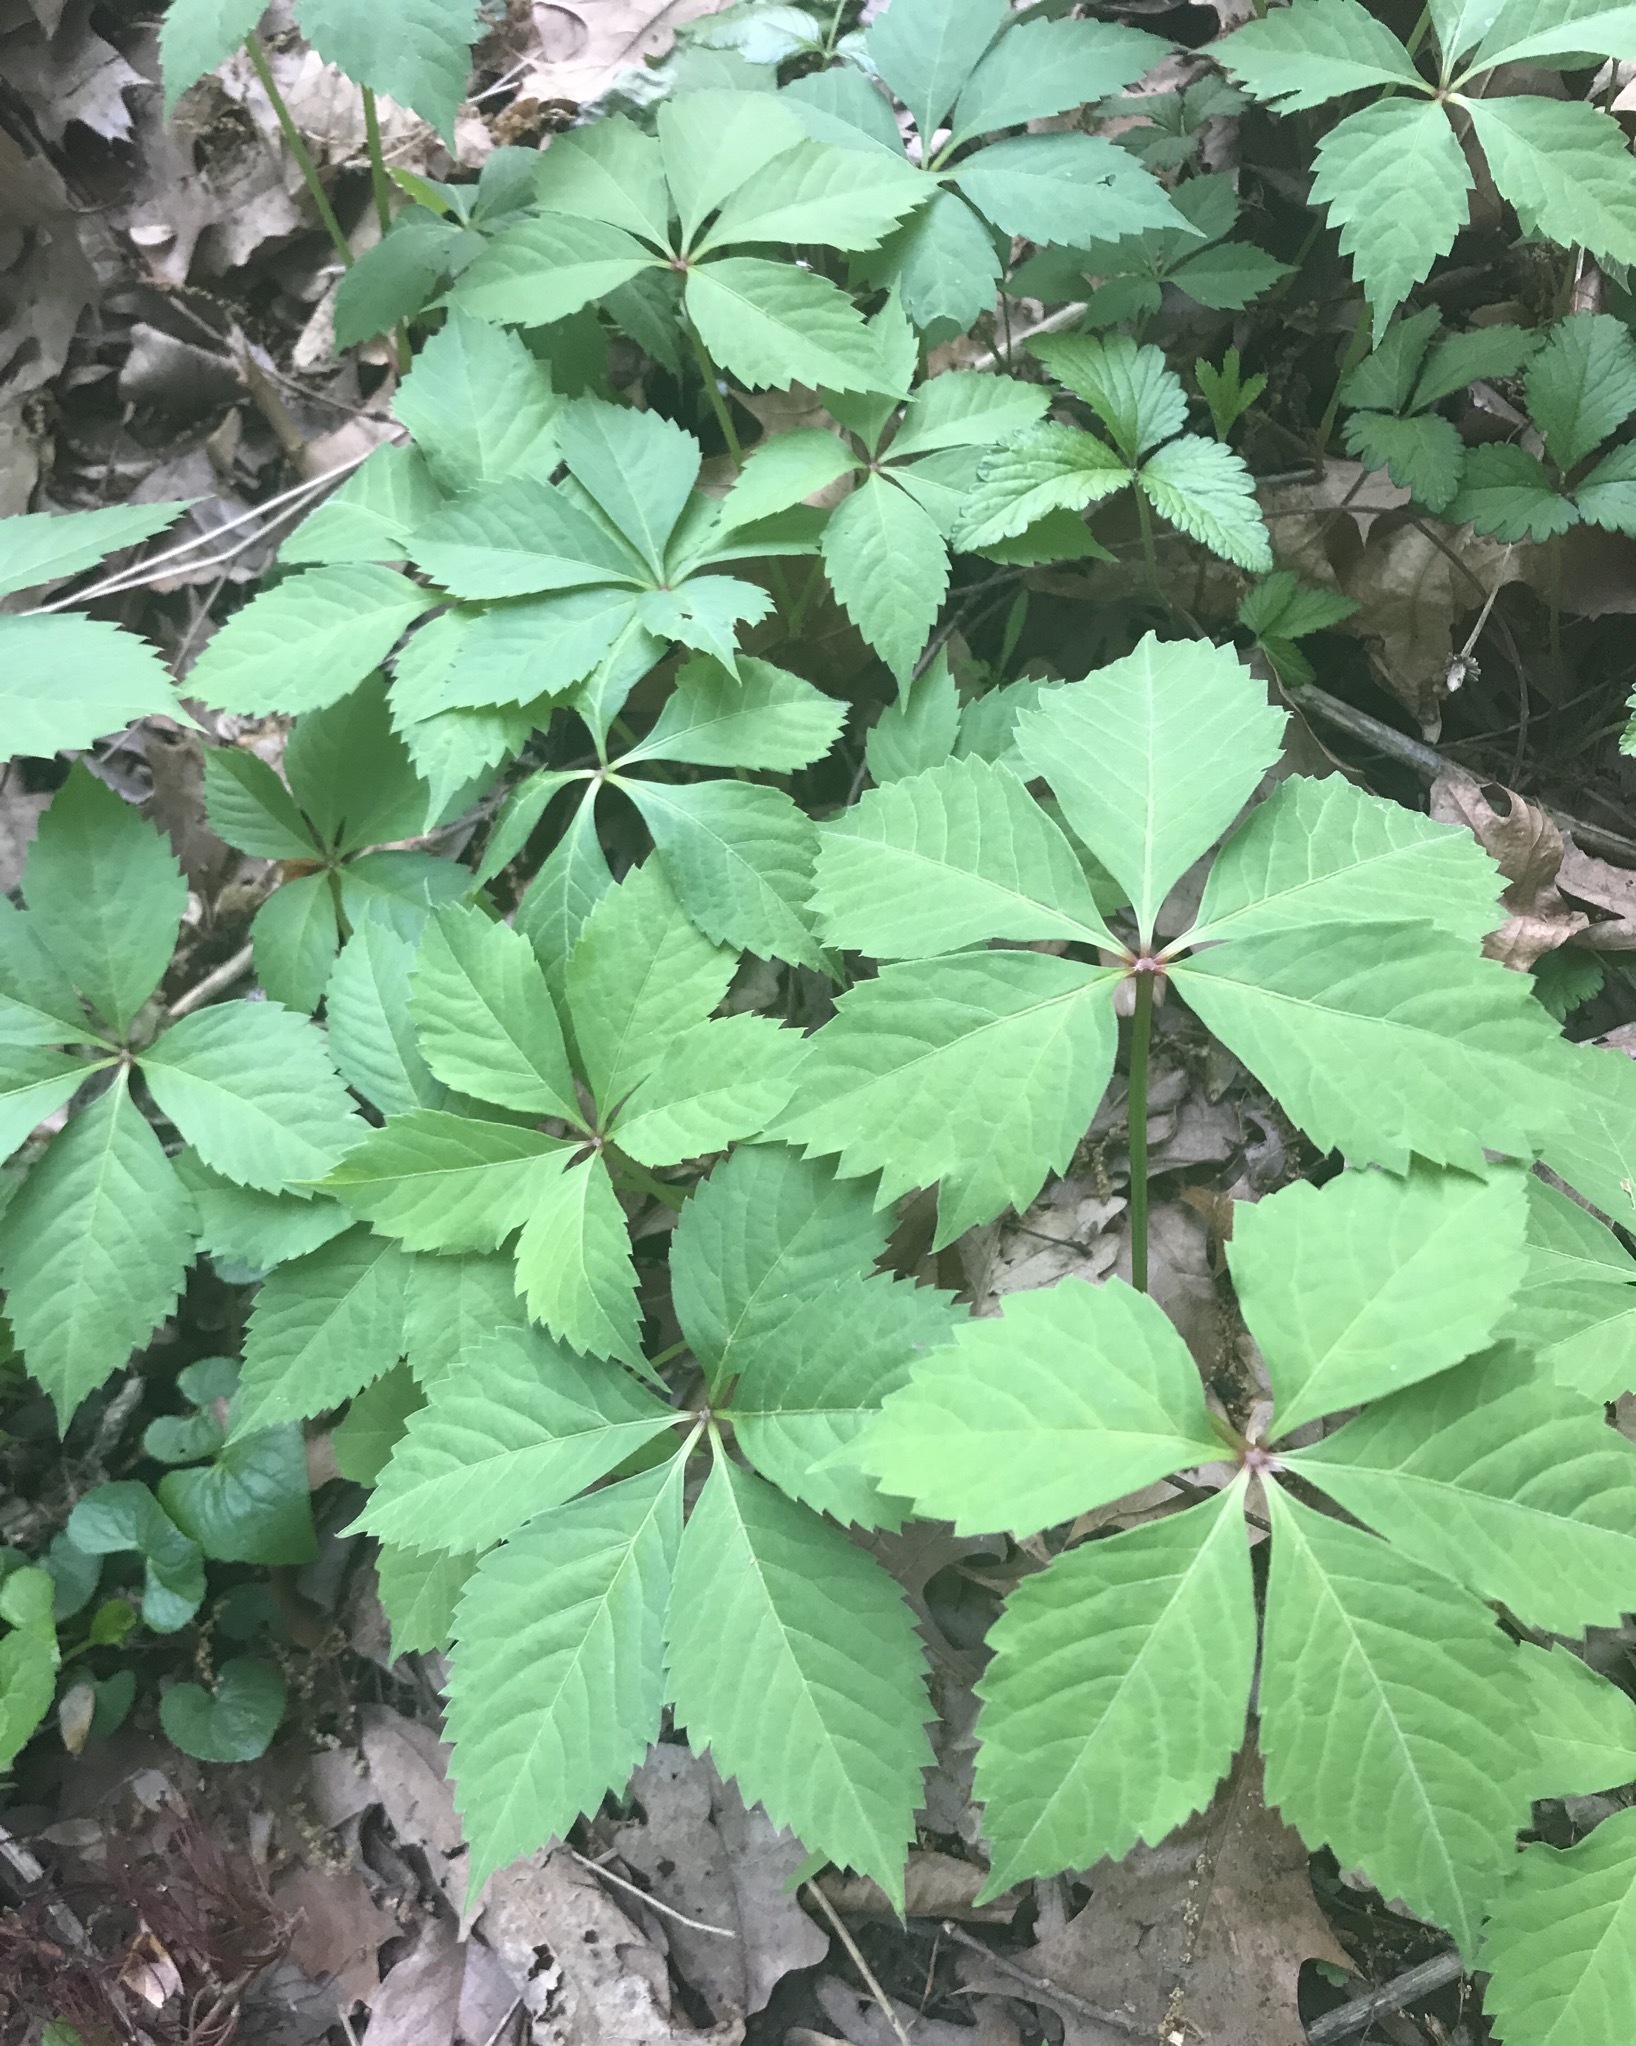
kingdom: Plantae
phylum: Tracheophyta
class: Magnoliopsida
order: Vitales
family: Vitaceae
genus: Parthenocissus
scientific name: Parthenocissus quinquefolia
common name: Virginia-creeper
